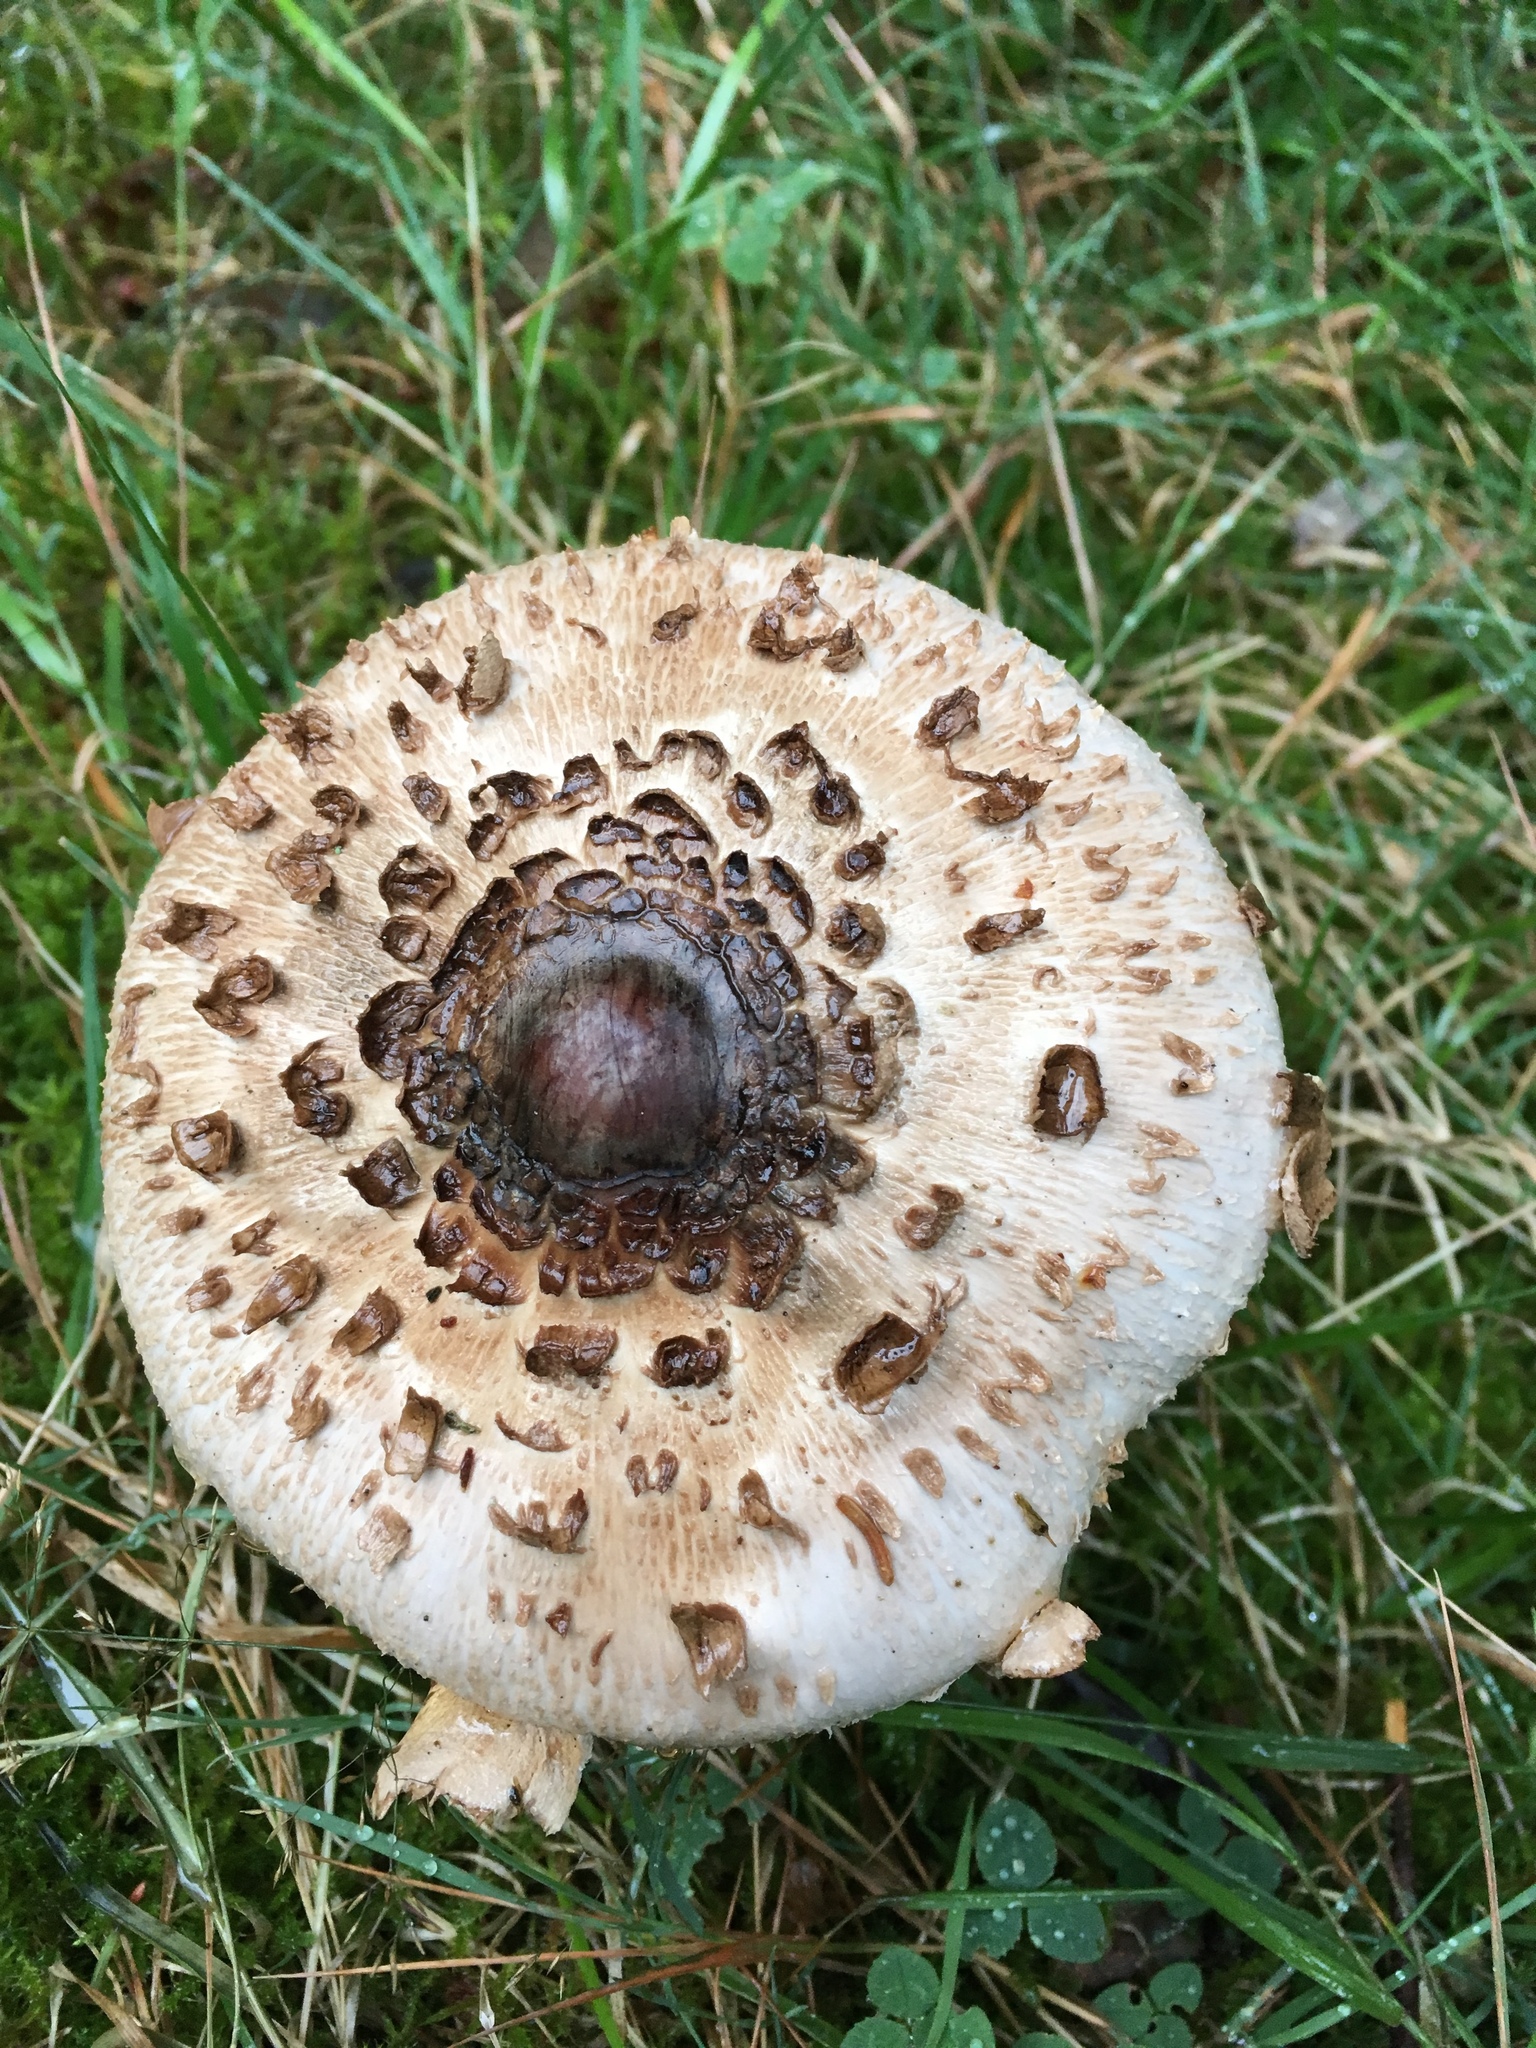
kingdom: Fungi
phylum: Basidiomycota
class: Agaricomycetes
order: Agaricales
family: Agaricaceae
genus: Macrolepiota
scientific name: Macrolepiota procera
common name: Parasol
